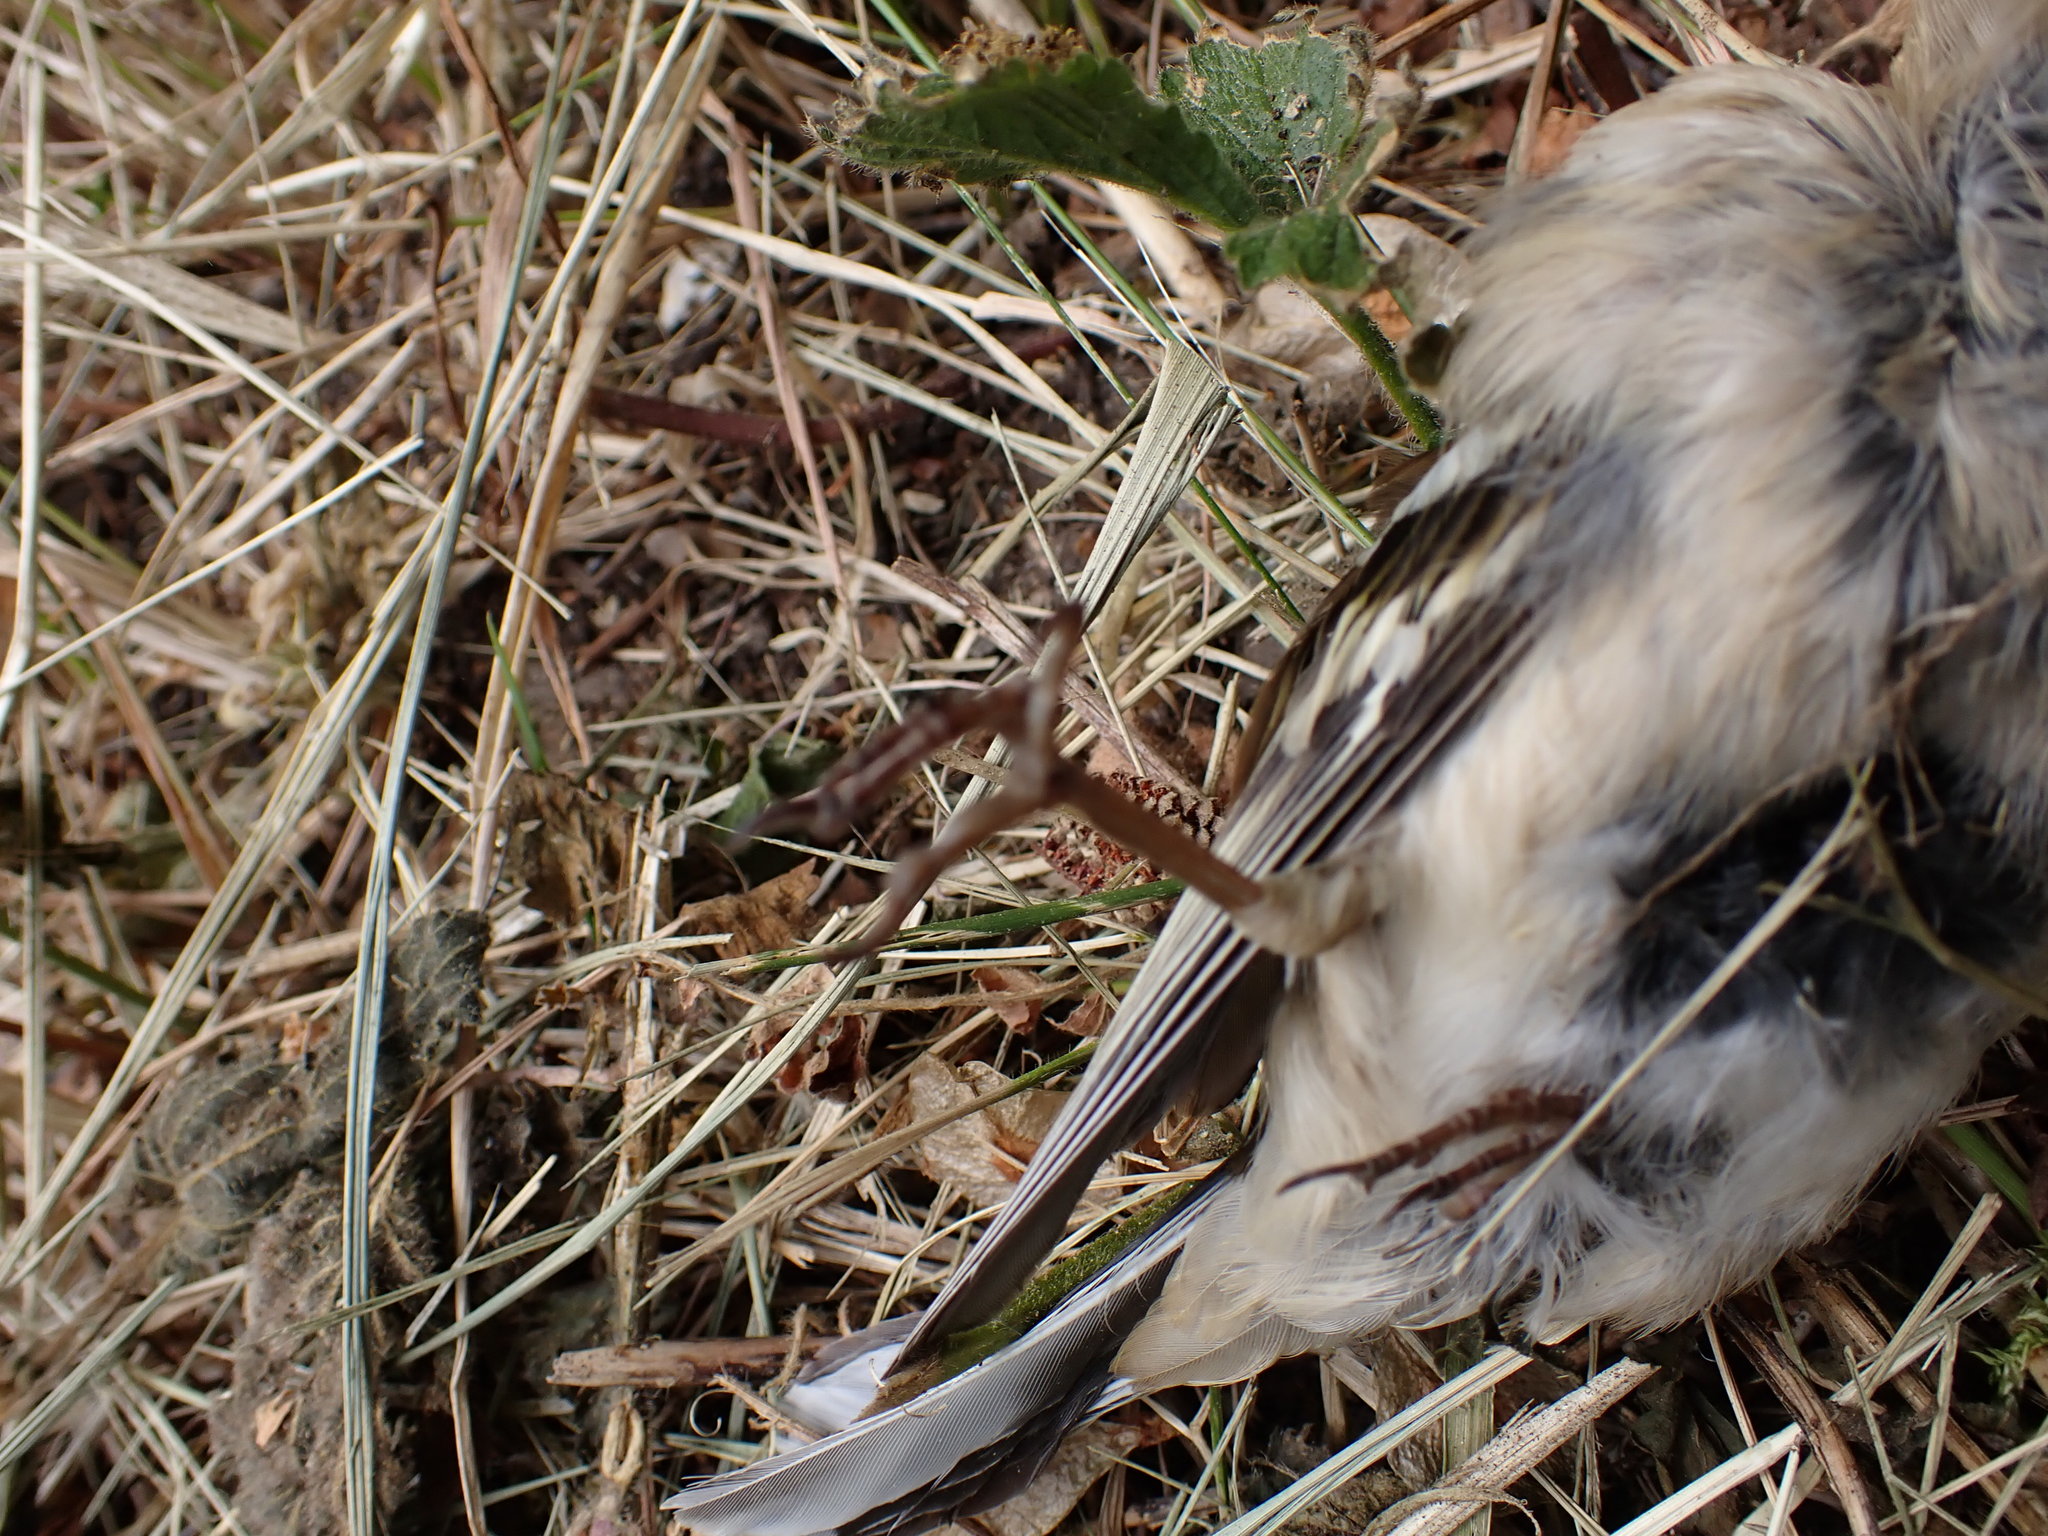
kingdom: Animalia
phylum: Chordata
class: Aves
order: Passeriformes
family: Fringillidae
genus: Fringilla
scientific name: Fringilla coelebs
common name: Common chaffinch
